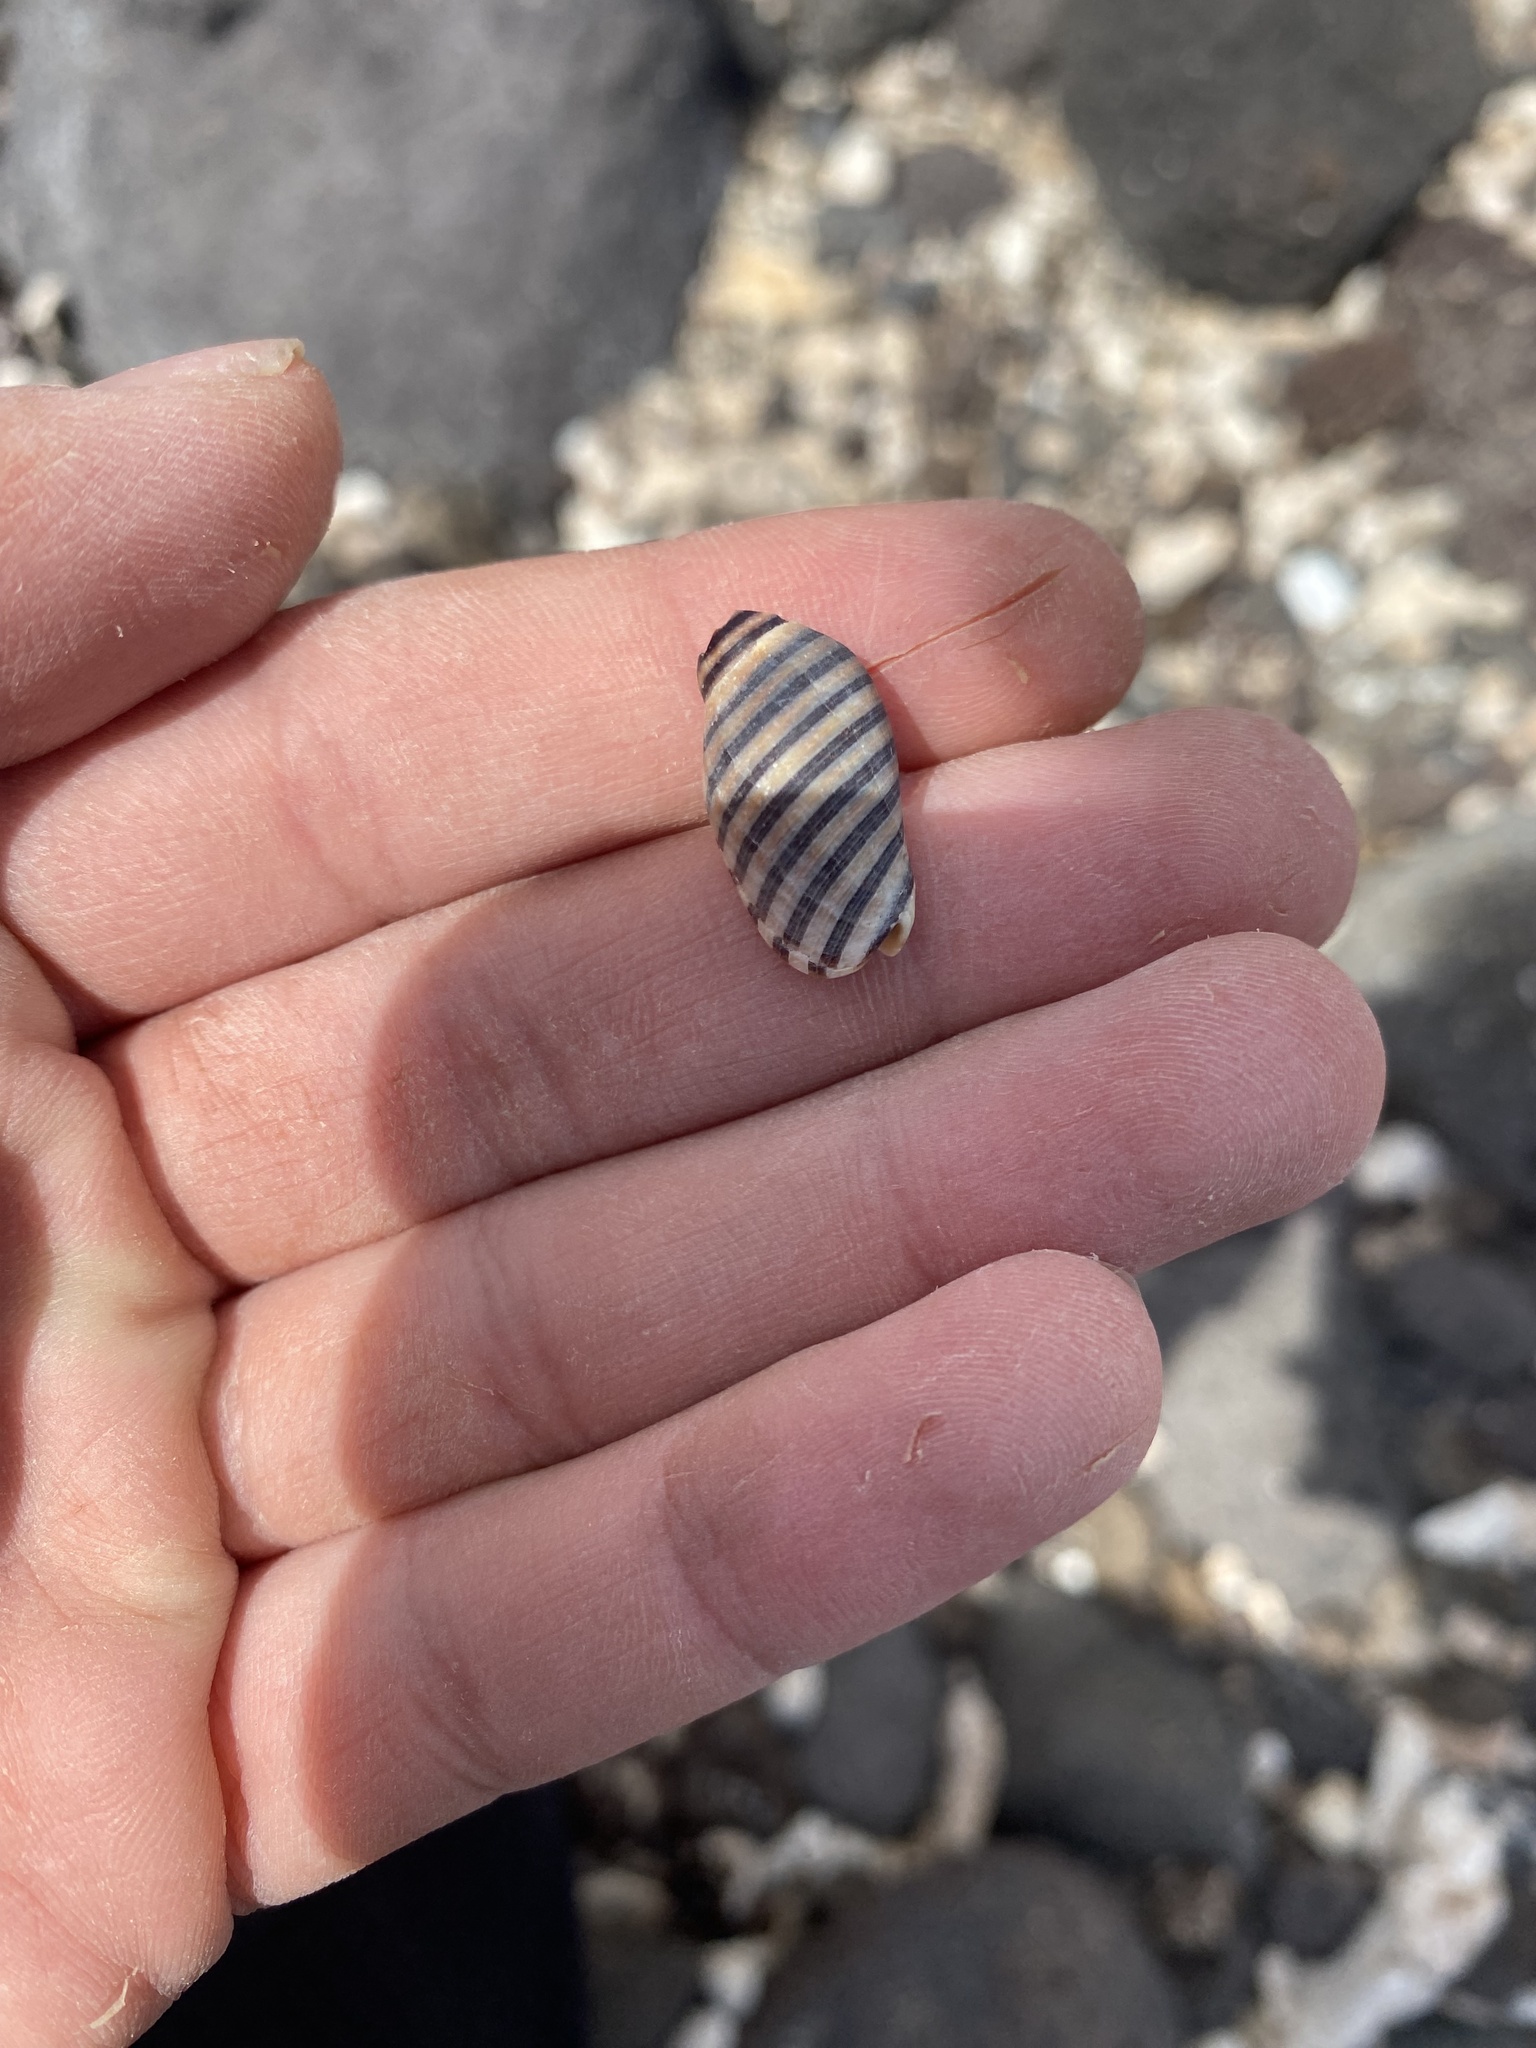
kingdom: Animalia
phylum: Mollusca
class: Gastropoda
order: Neogastropoda
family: Muricidae
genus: Vexilla
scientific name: Vexilla vexillum
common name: Ribboned jopas
